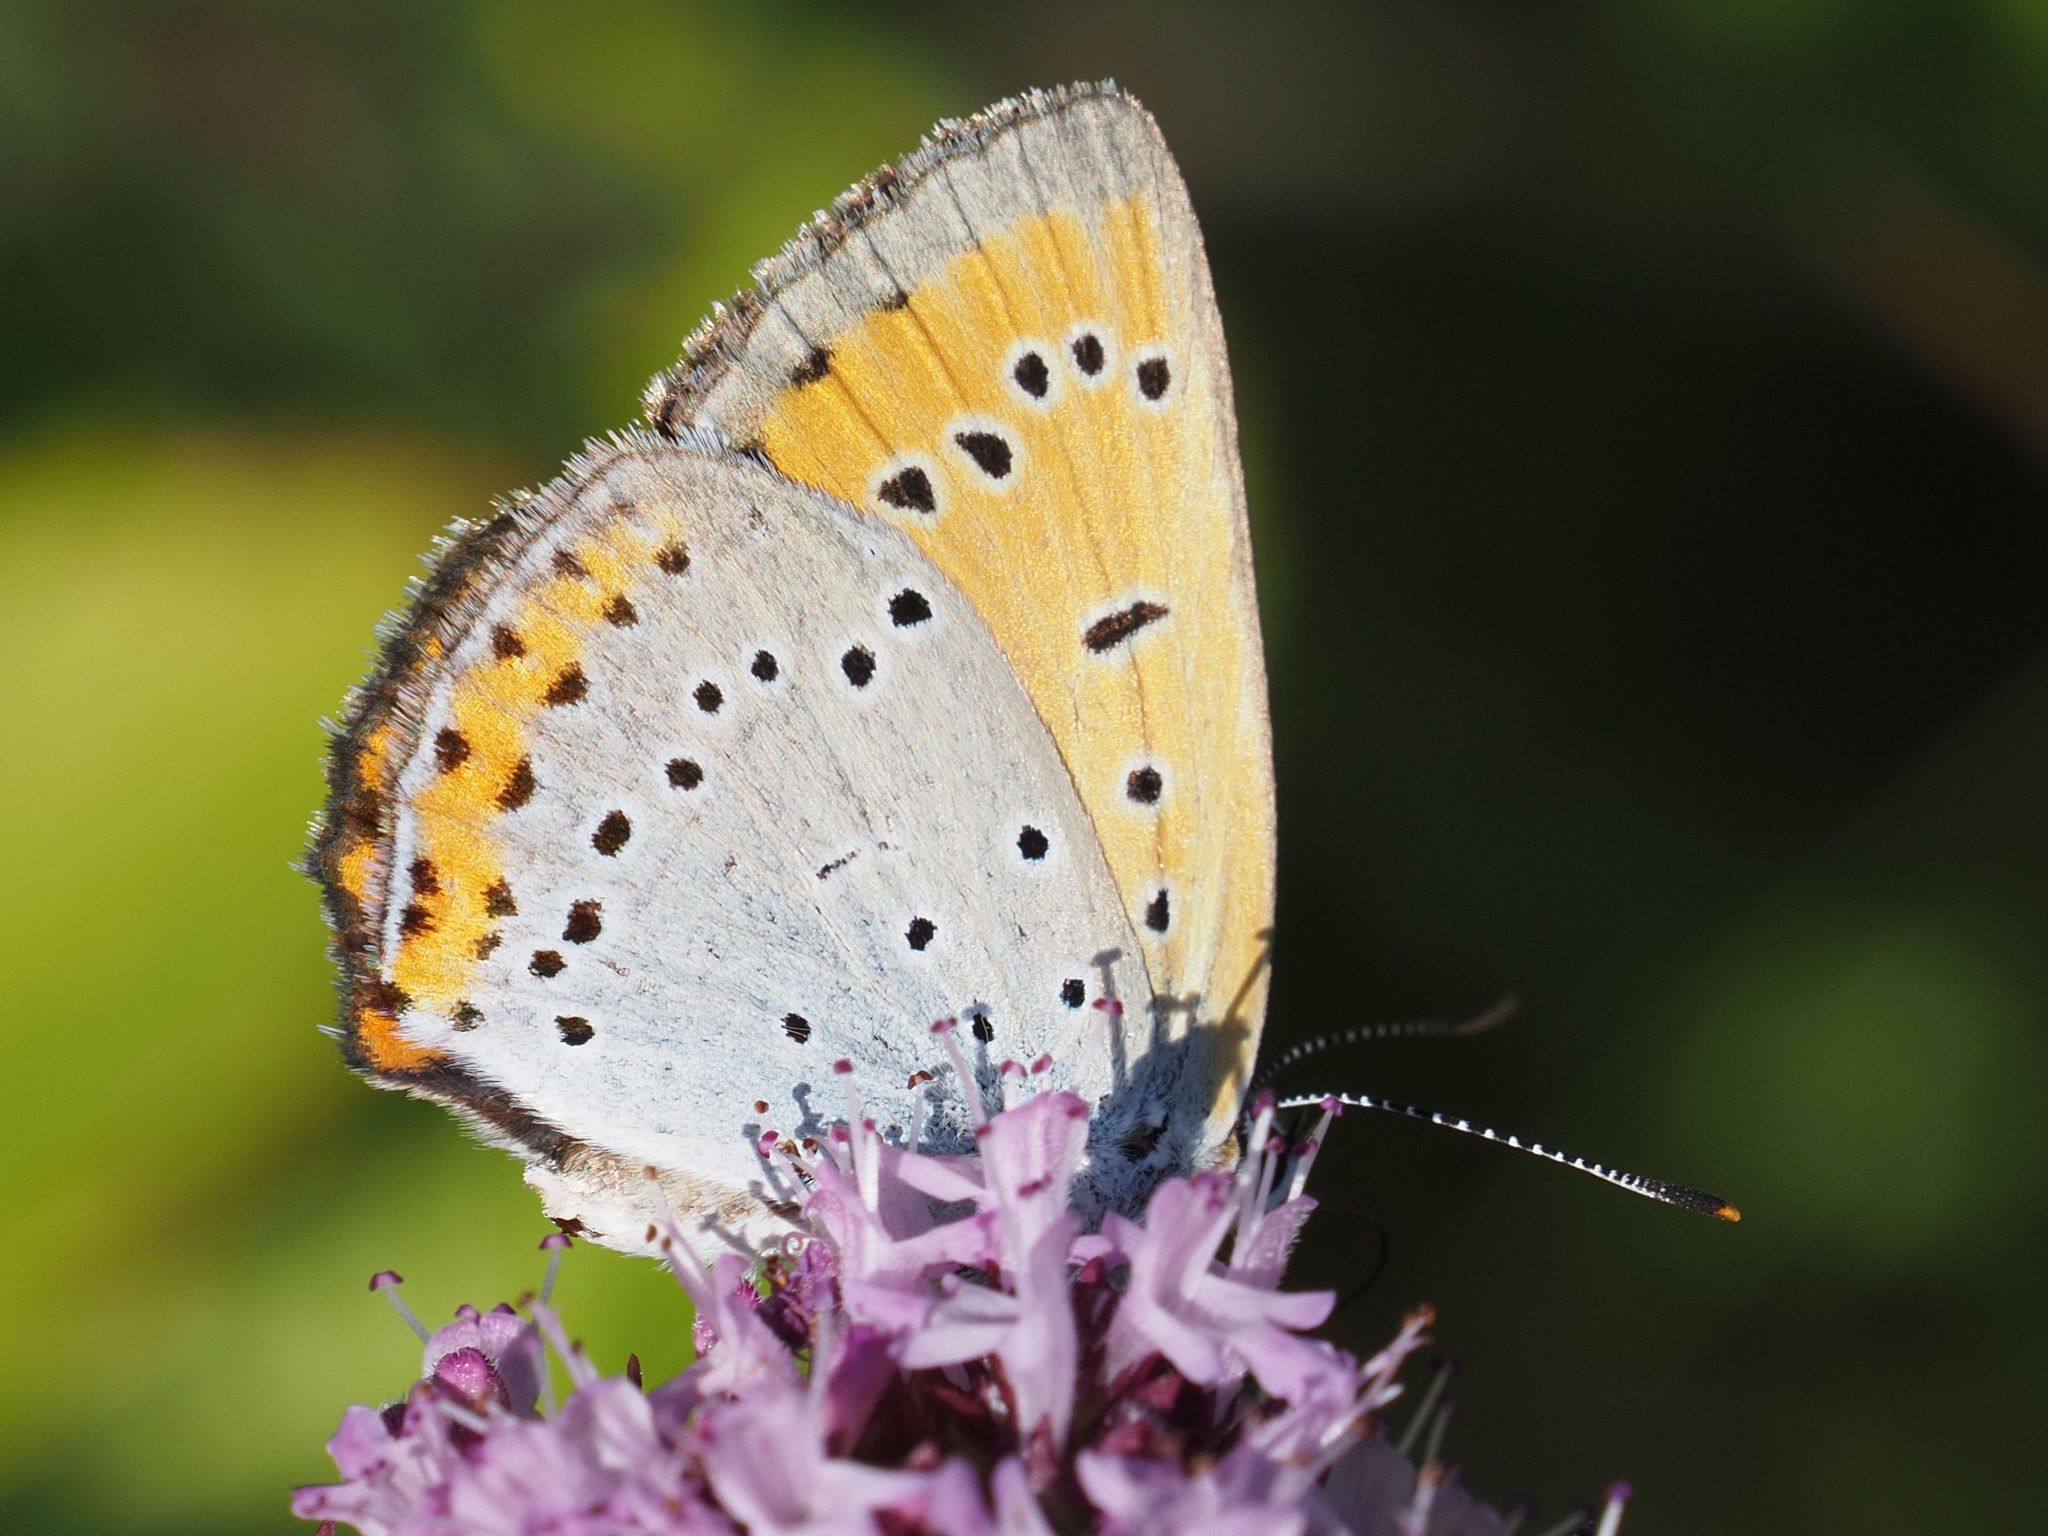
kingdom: Animalia
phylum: Arthropoda
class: Insecta
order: Lepidoptera
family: Lycaenidae
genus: Lycaena
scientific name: Lycaena dispar
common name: Large copper
